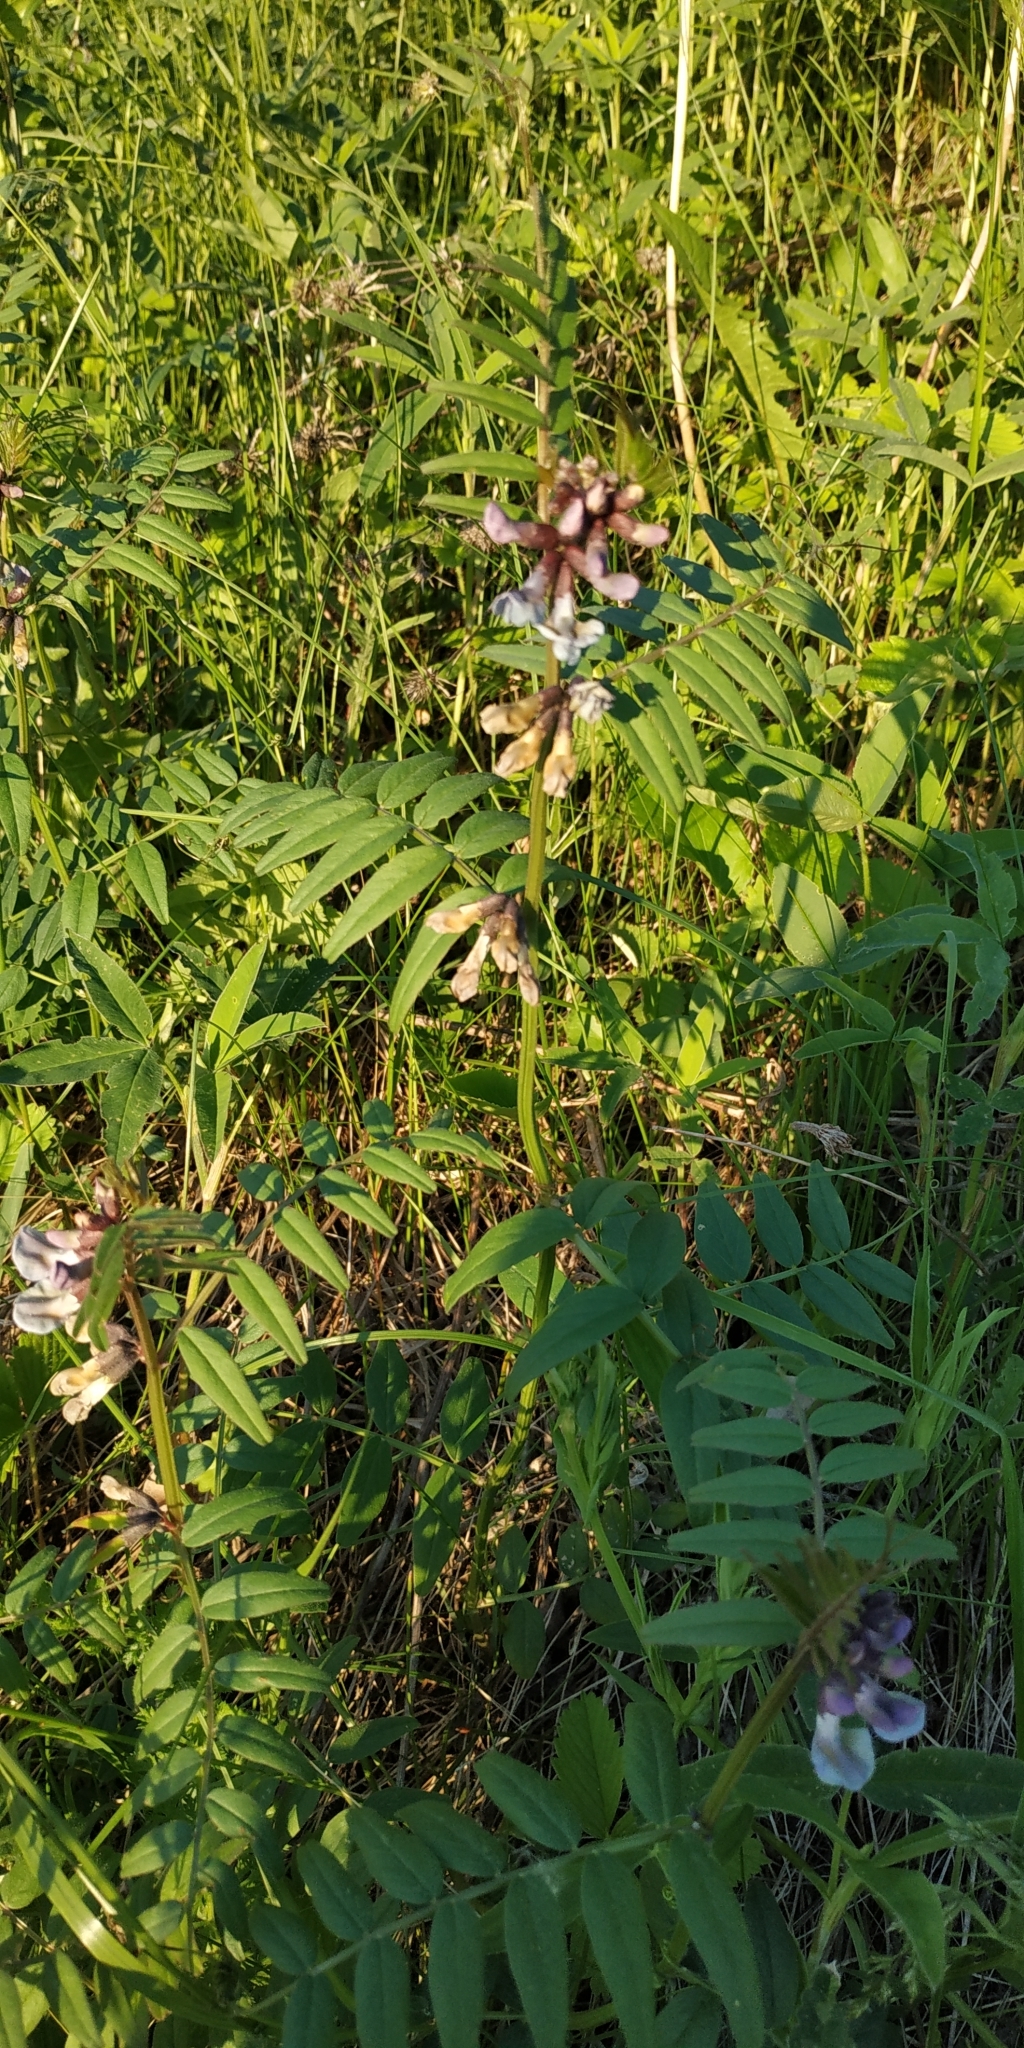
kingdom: Plantae
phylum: Tracheophyta
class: Magnoliopsida
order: Fabales
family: Fabaceae
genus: Vicia
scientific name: Vicia sepium
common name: Bush vetch
